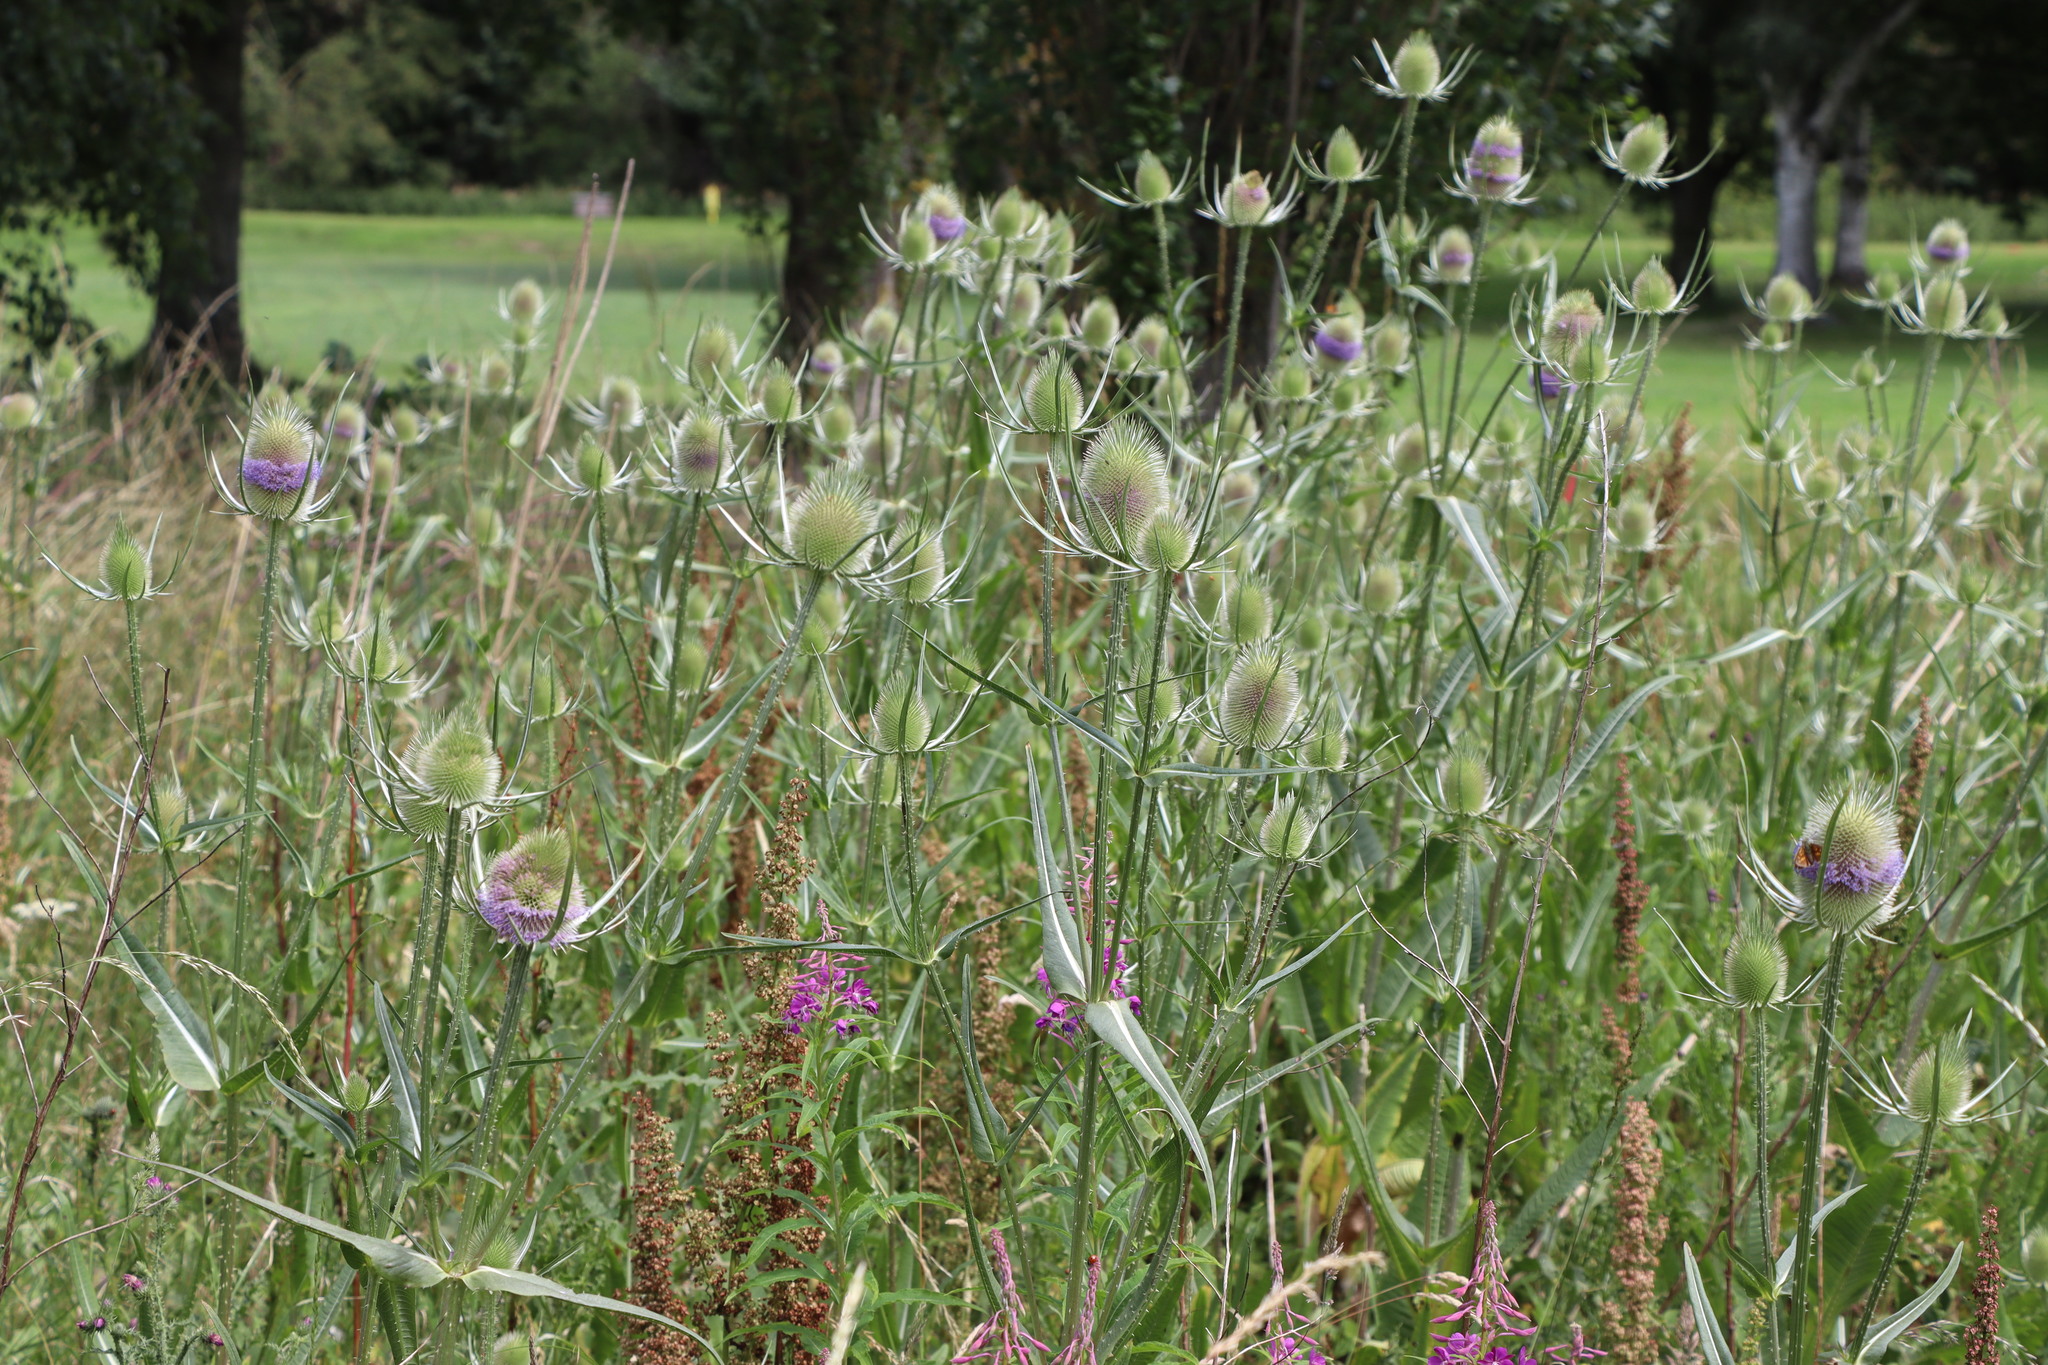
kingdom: Plantae
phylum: Tracheophyta
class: Magnoliopsida
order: Dipsacales
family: Caprifoliaceae
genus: Dipsacus
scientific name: Dipsacus fullonum
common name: Teasel
